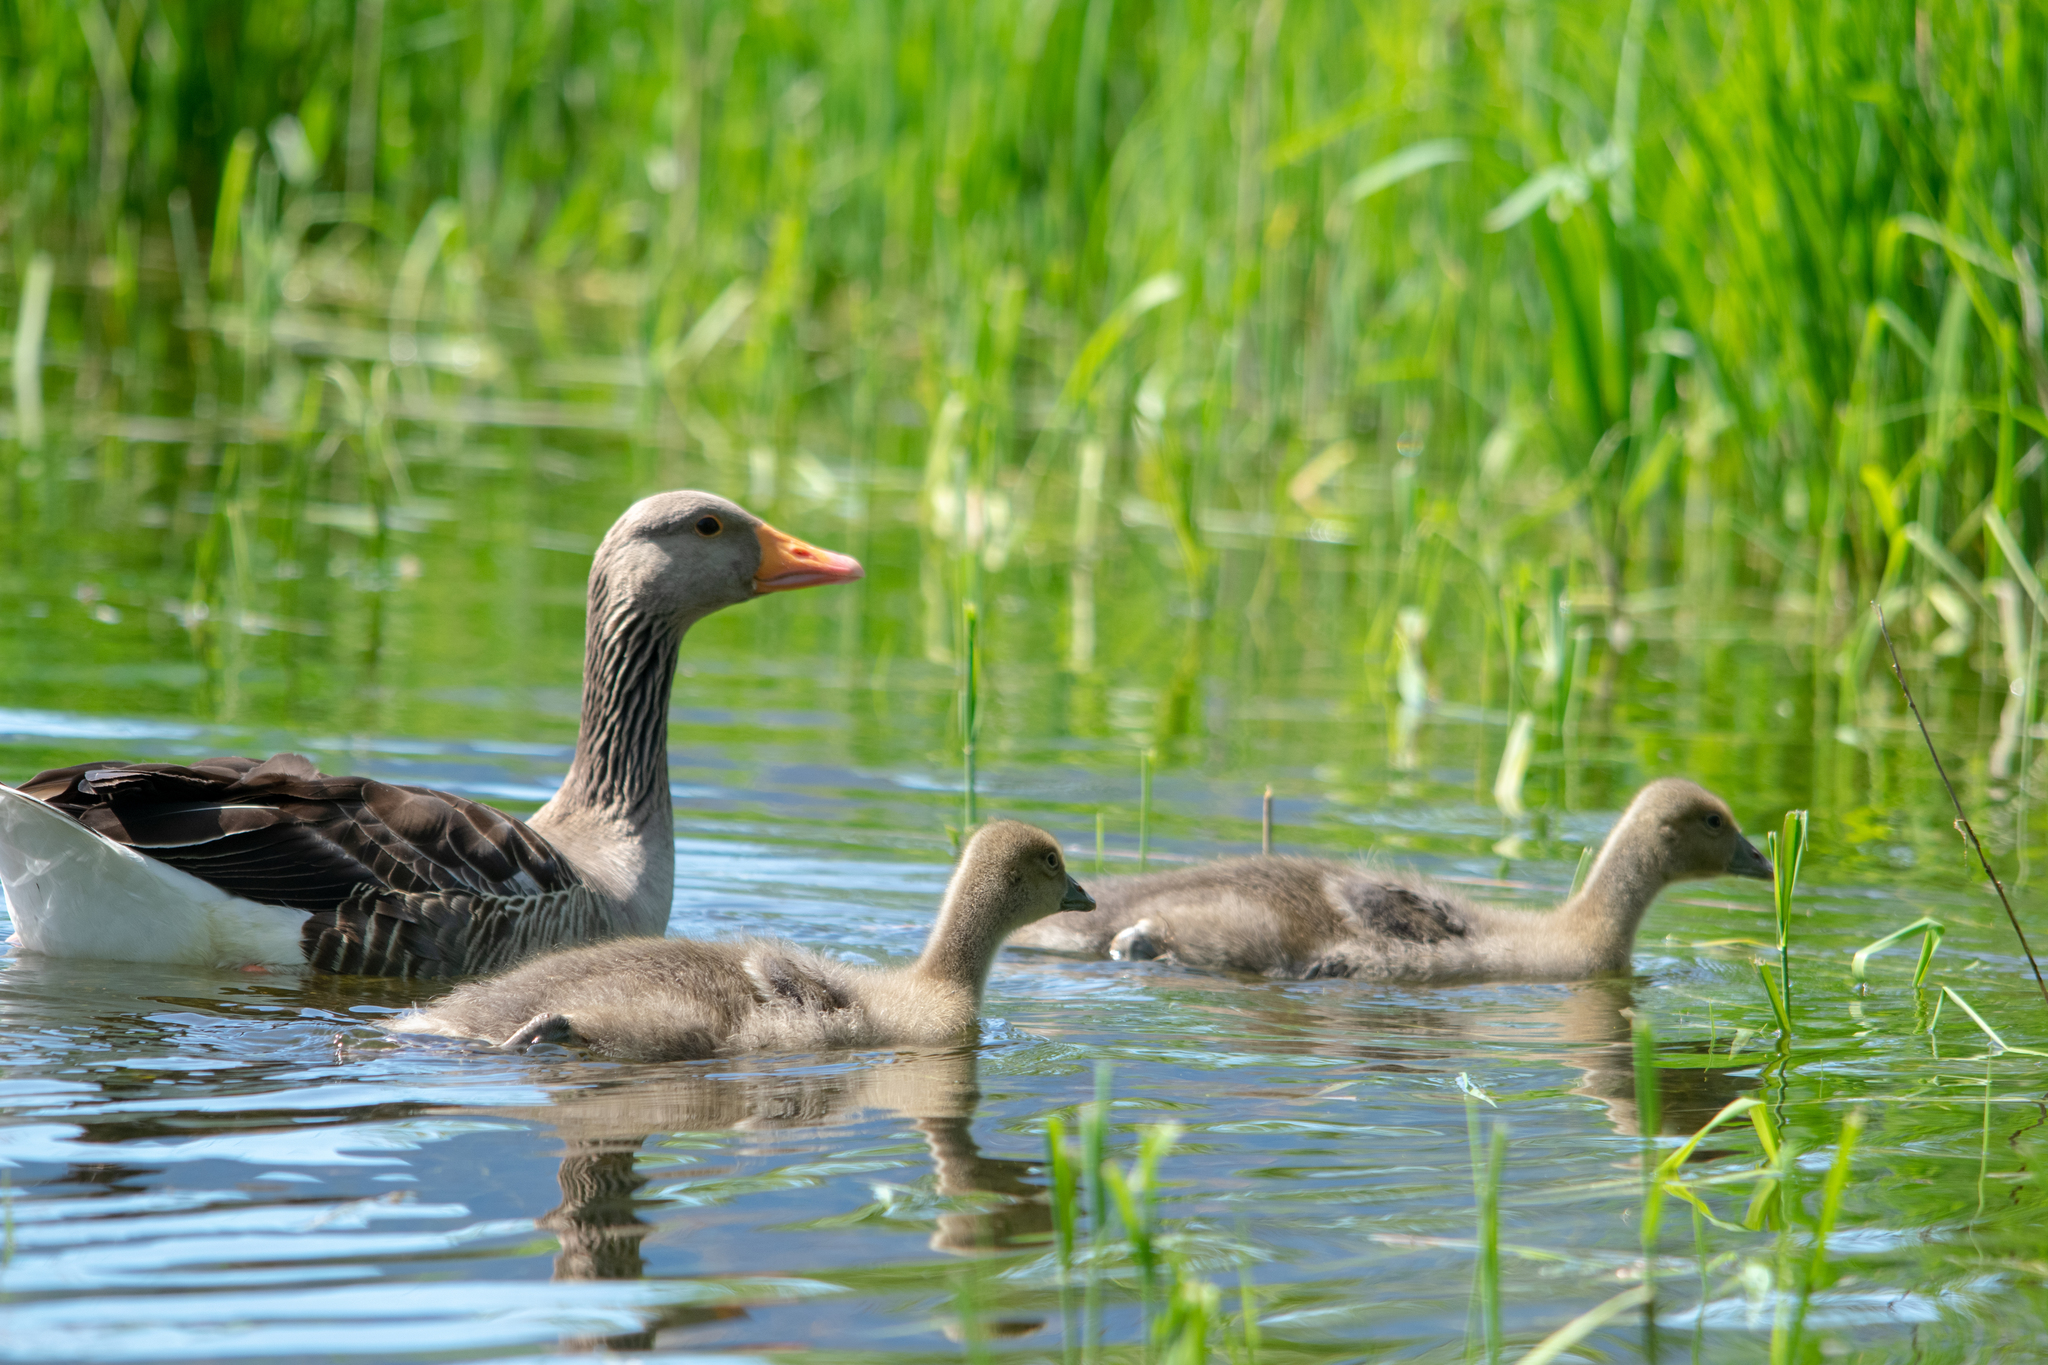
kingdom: Animalia
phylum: Chordata
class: Aves
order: Anseriformes
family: Anatidae
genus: Anser
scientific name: Anser anser
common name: Greylag goose
